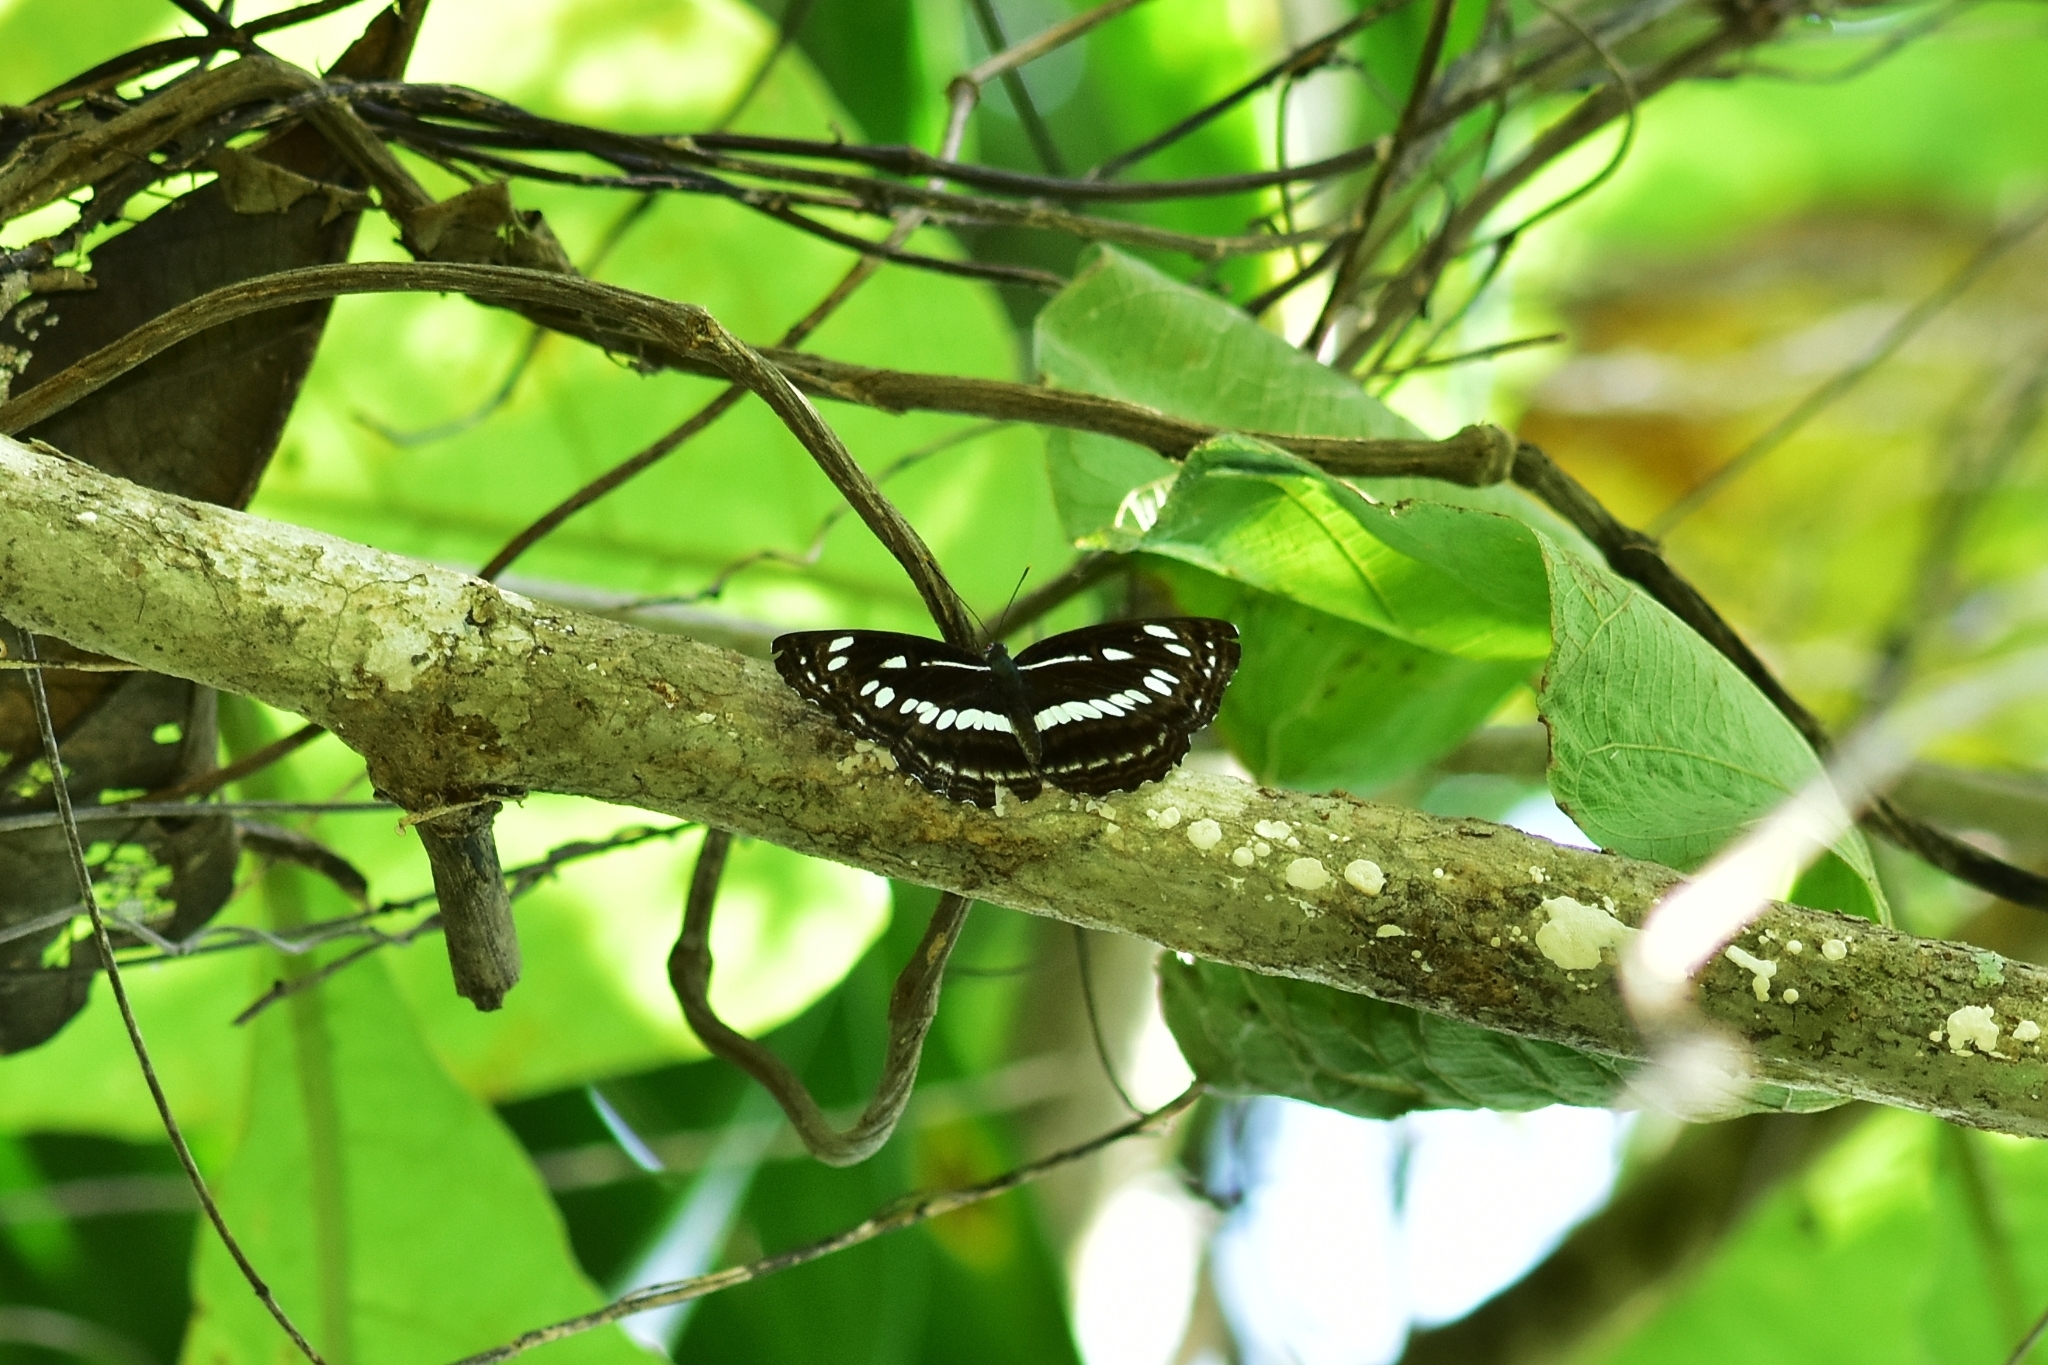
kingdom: Animalia
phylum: Arthropoda
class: Insecta
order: Lepidoptera
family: Nymphalidae
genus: Neptis
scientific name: Neptis jumbah
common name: Chestnut-streaked sailer
